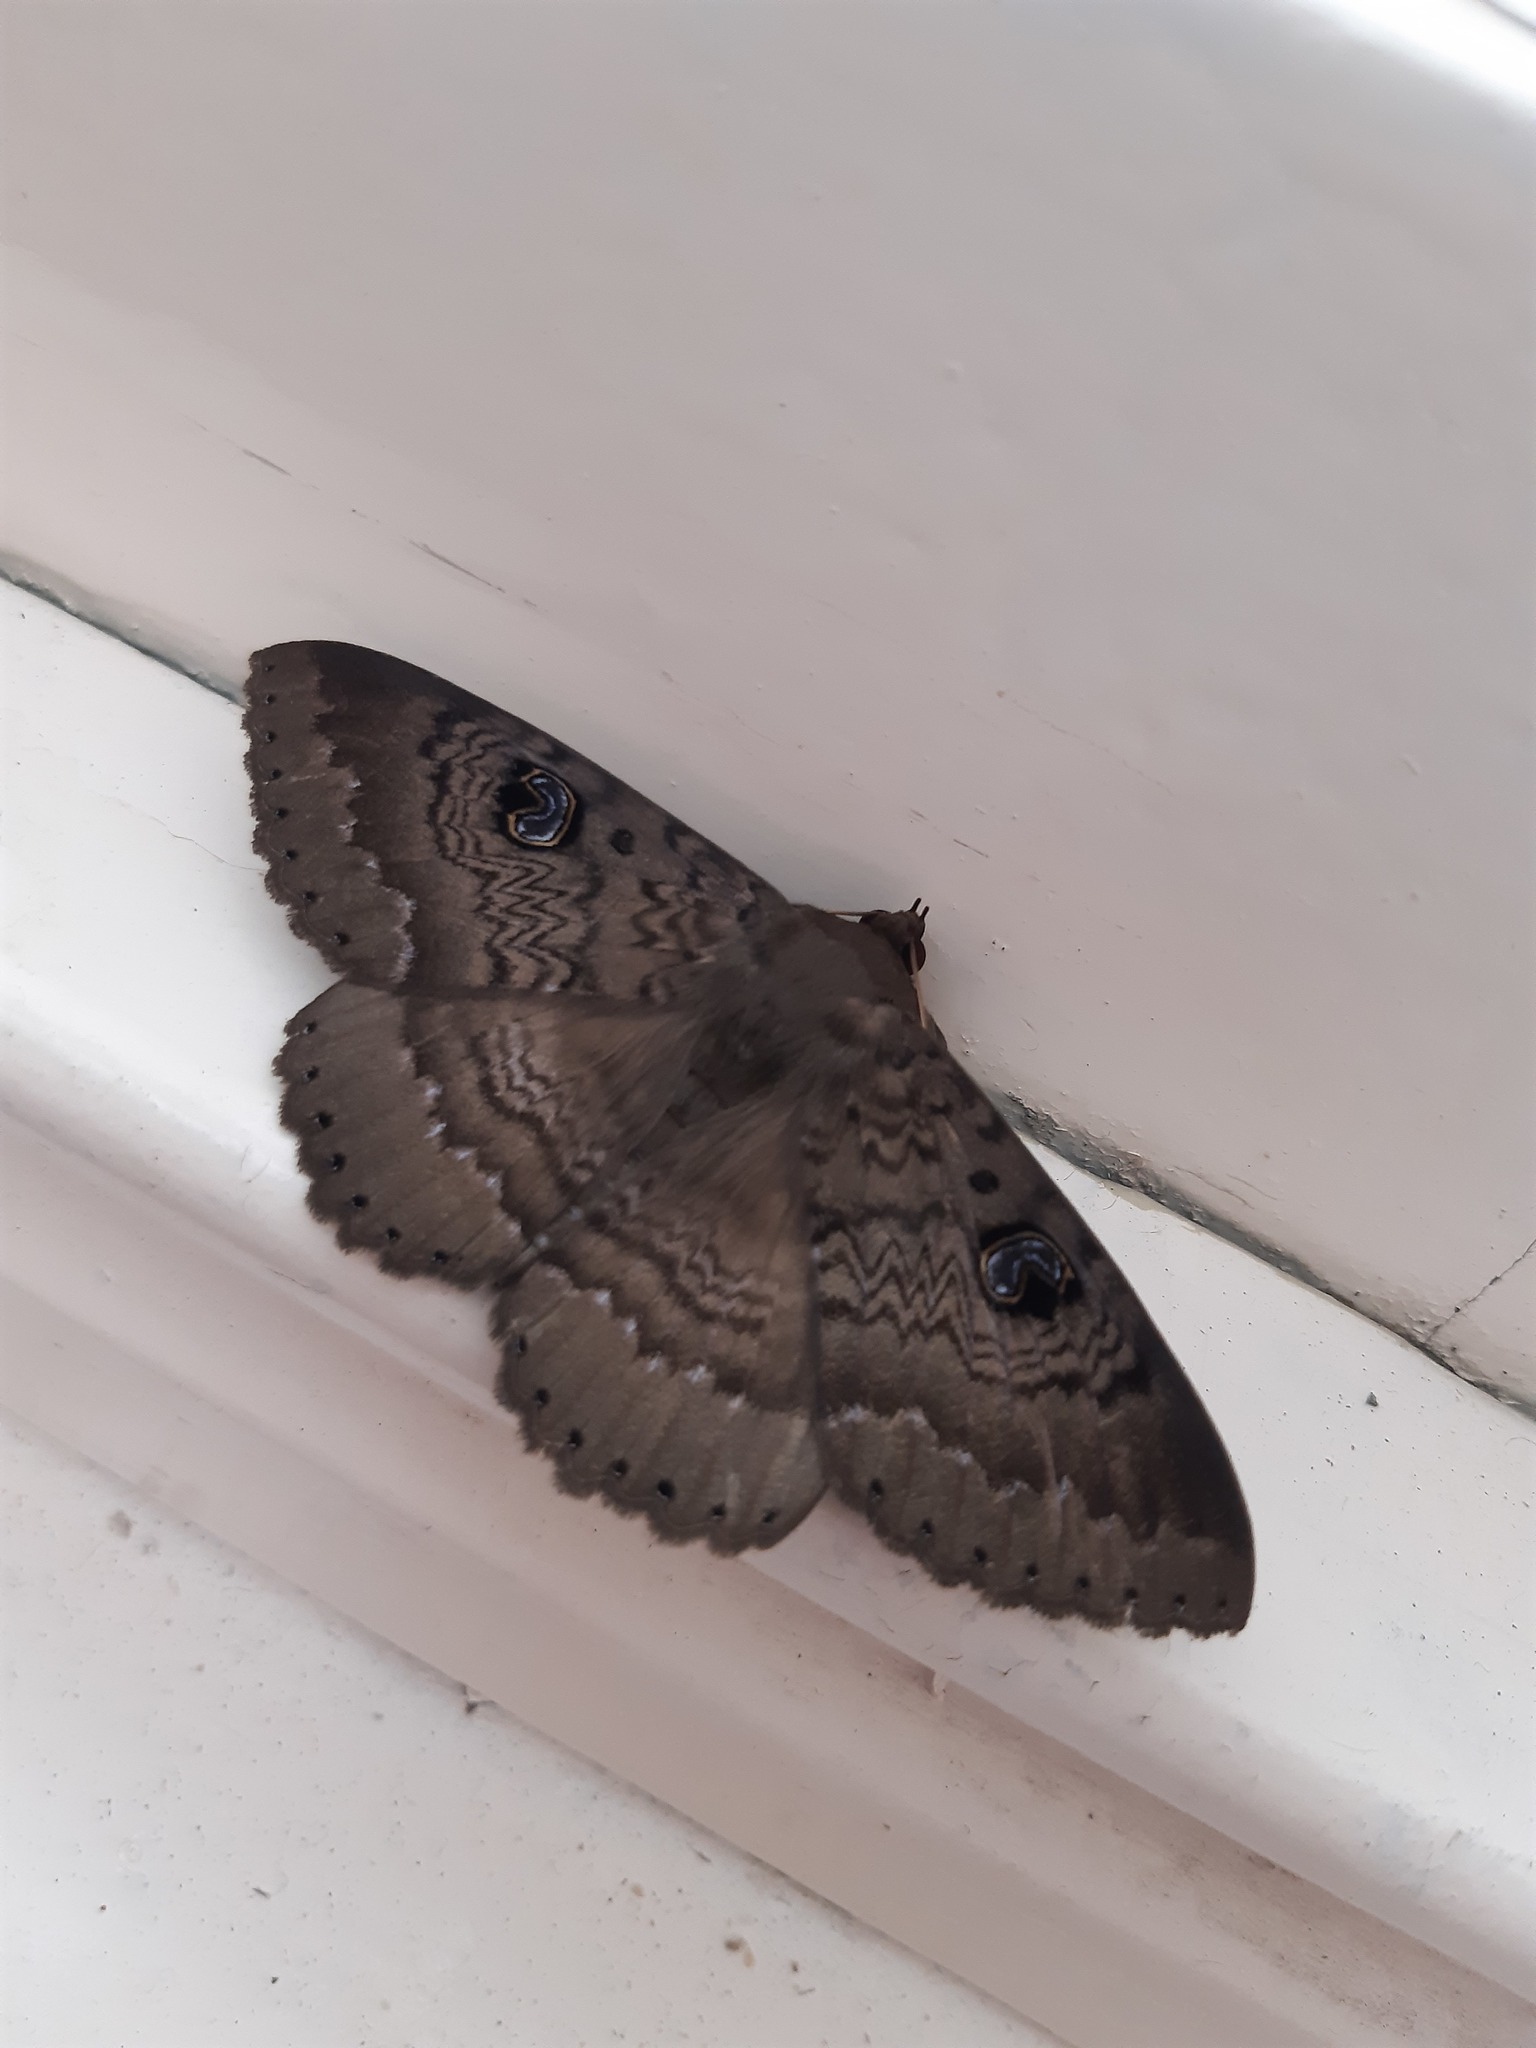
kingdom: Animalia
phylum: Arthropoda
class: Insecta
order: Lepidoptera
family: Erebidae
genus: Dasypodia
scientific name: Dasypodia cymatodes
